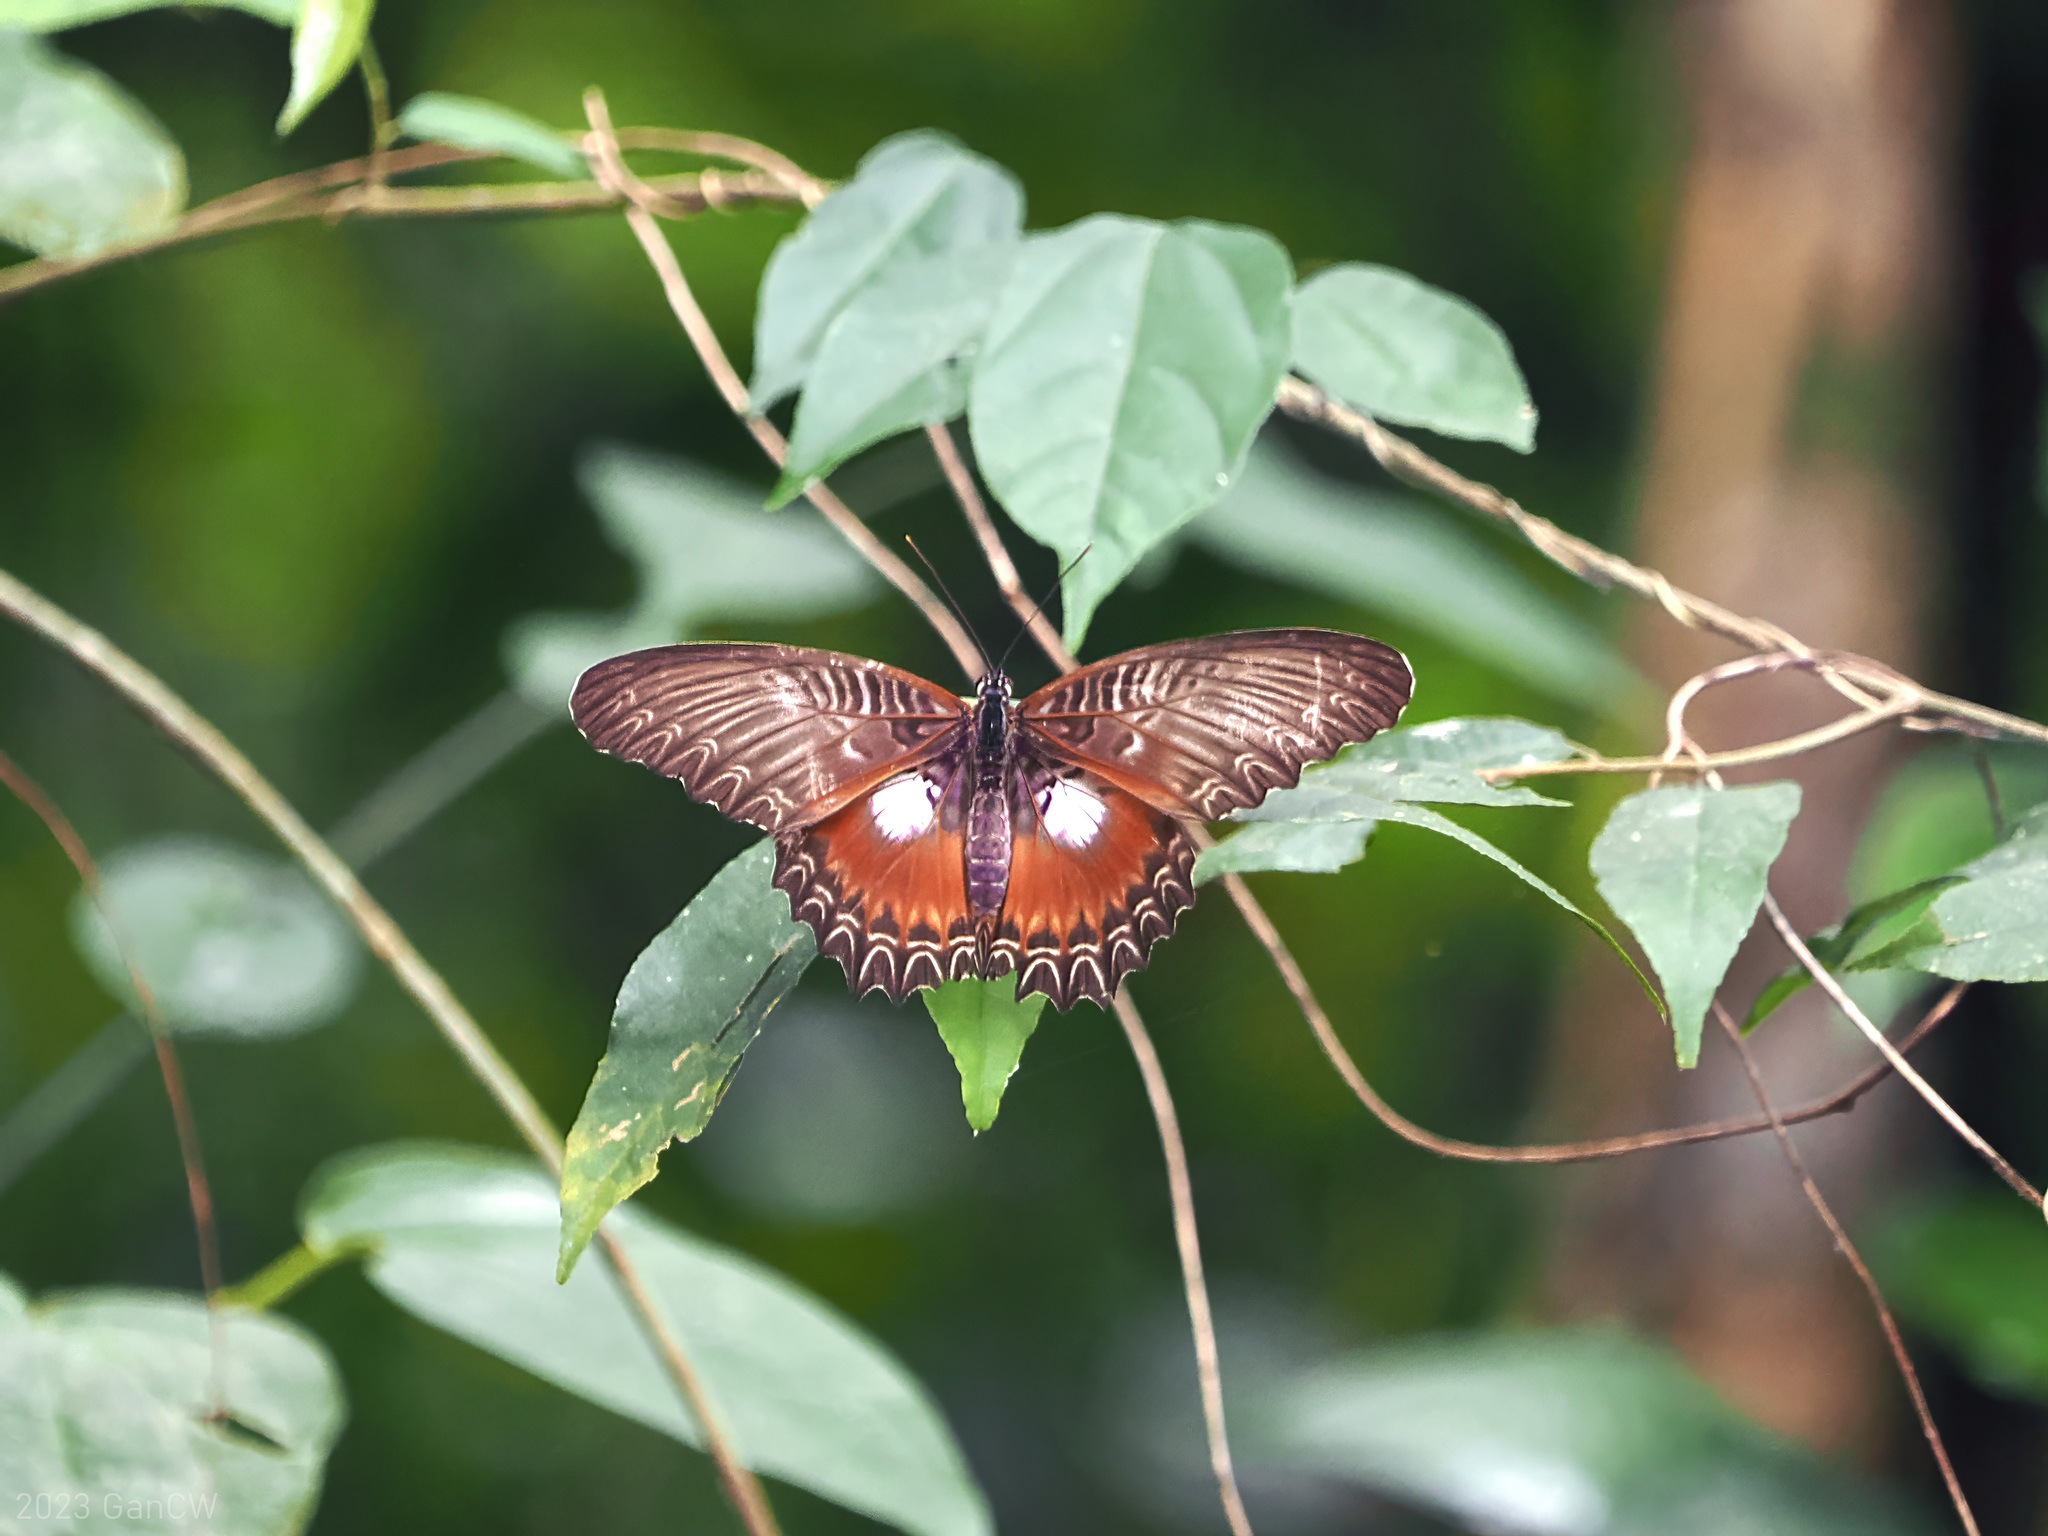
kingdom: Animalia
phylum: Arthropoda
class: Insecta
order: Lepidoptera
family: Nymphalidae
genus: Cethosia
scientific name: Cethosia myrina
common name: Violet lacewing
